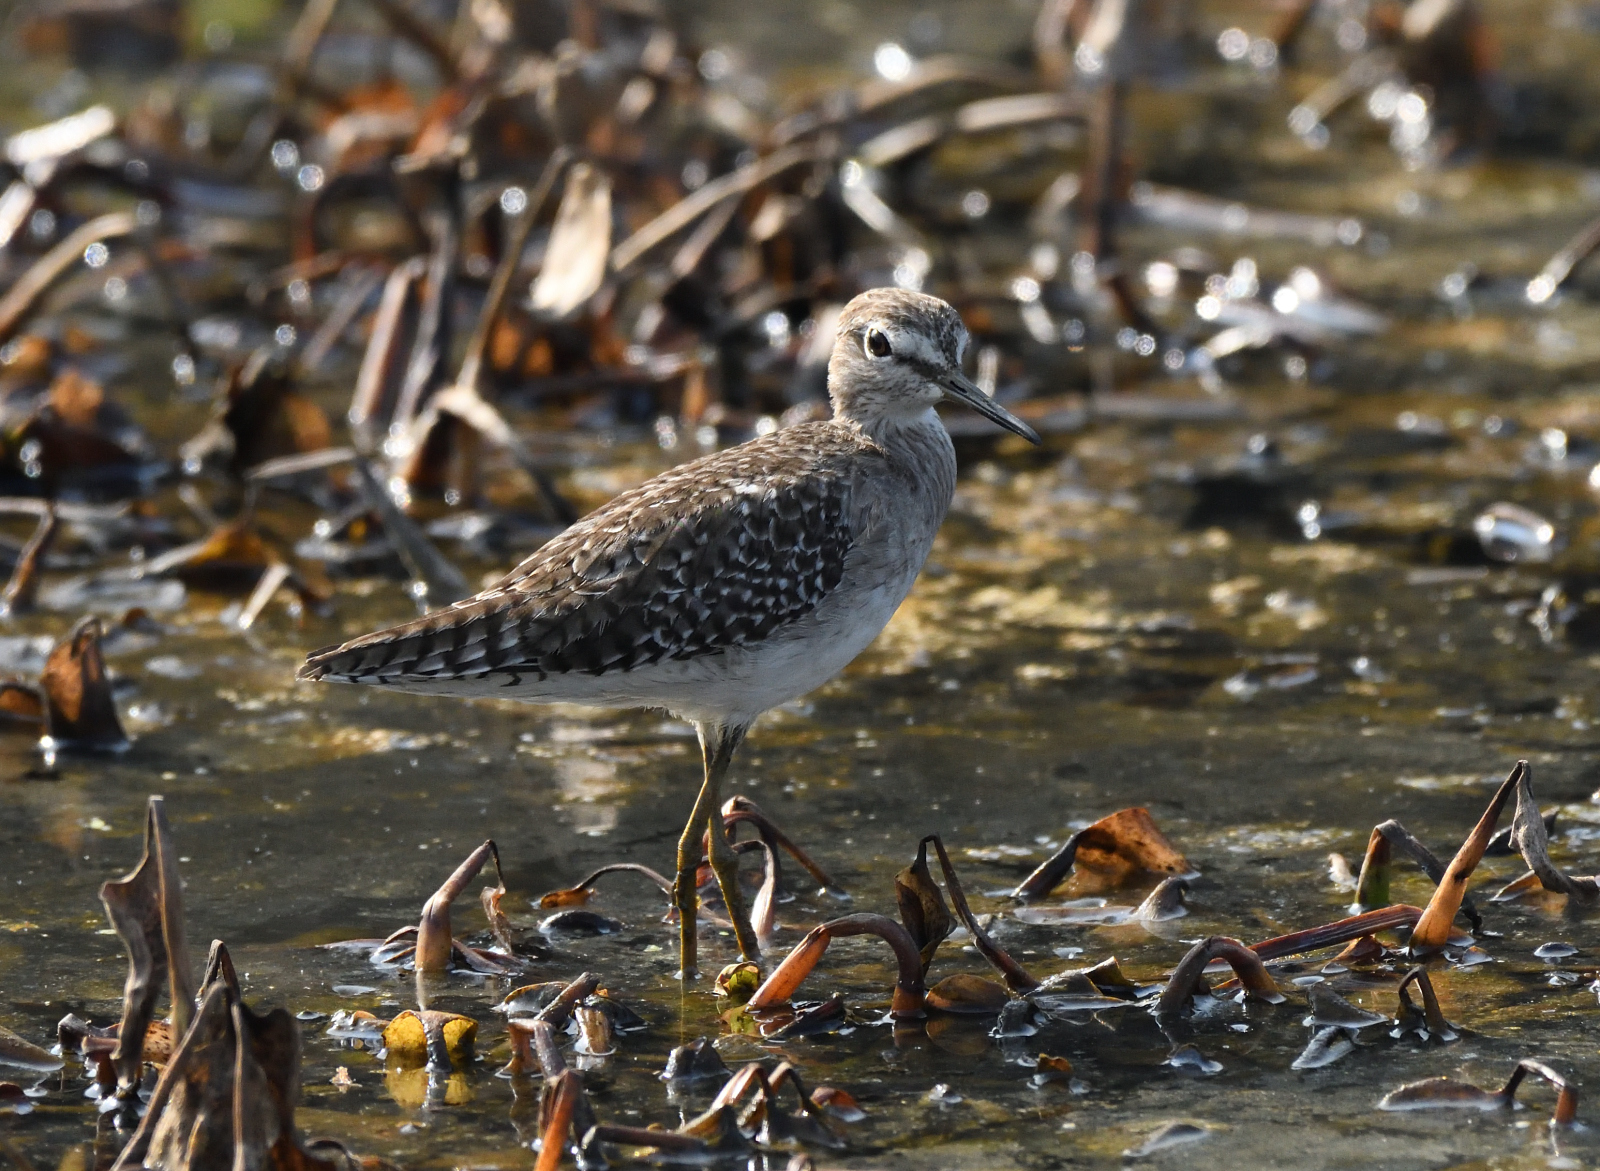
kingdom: Animalia
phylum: Chordata
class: Aves
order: Charadriiformes
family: Scolopacidae
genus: Tringa
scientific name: Tringa glareola
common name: Wood sandpiper
